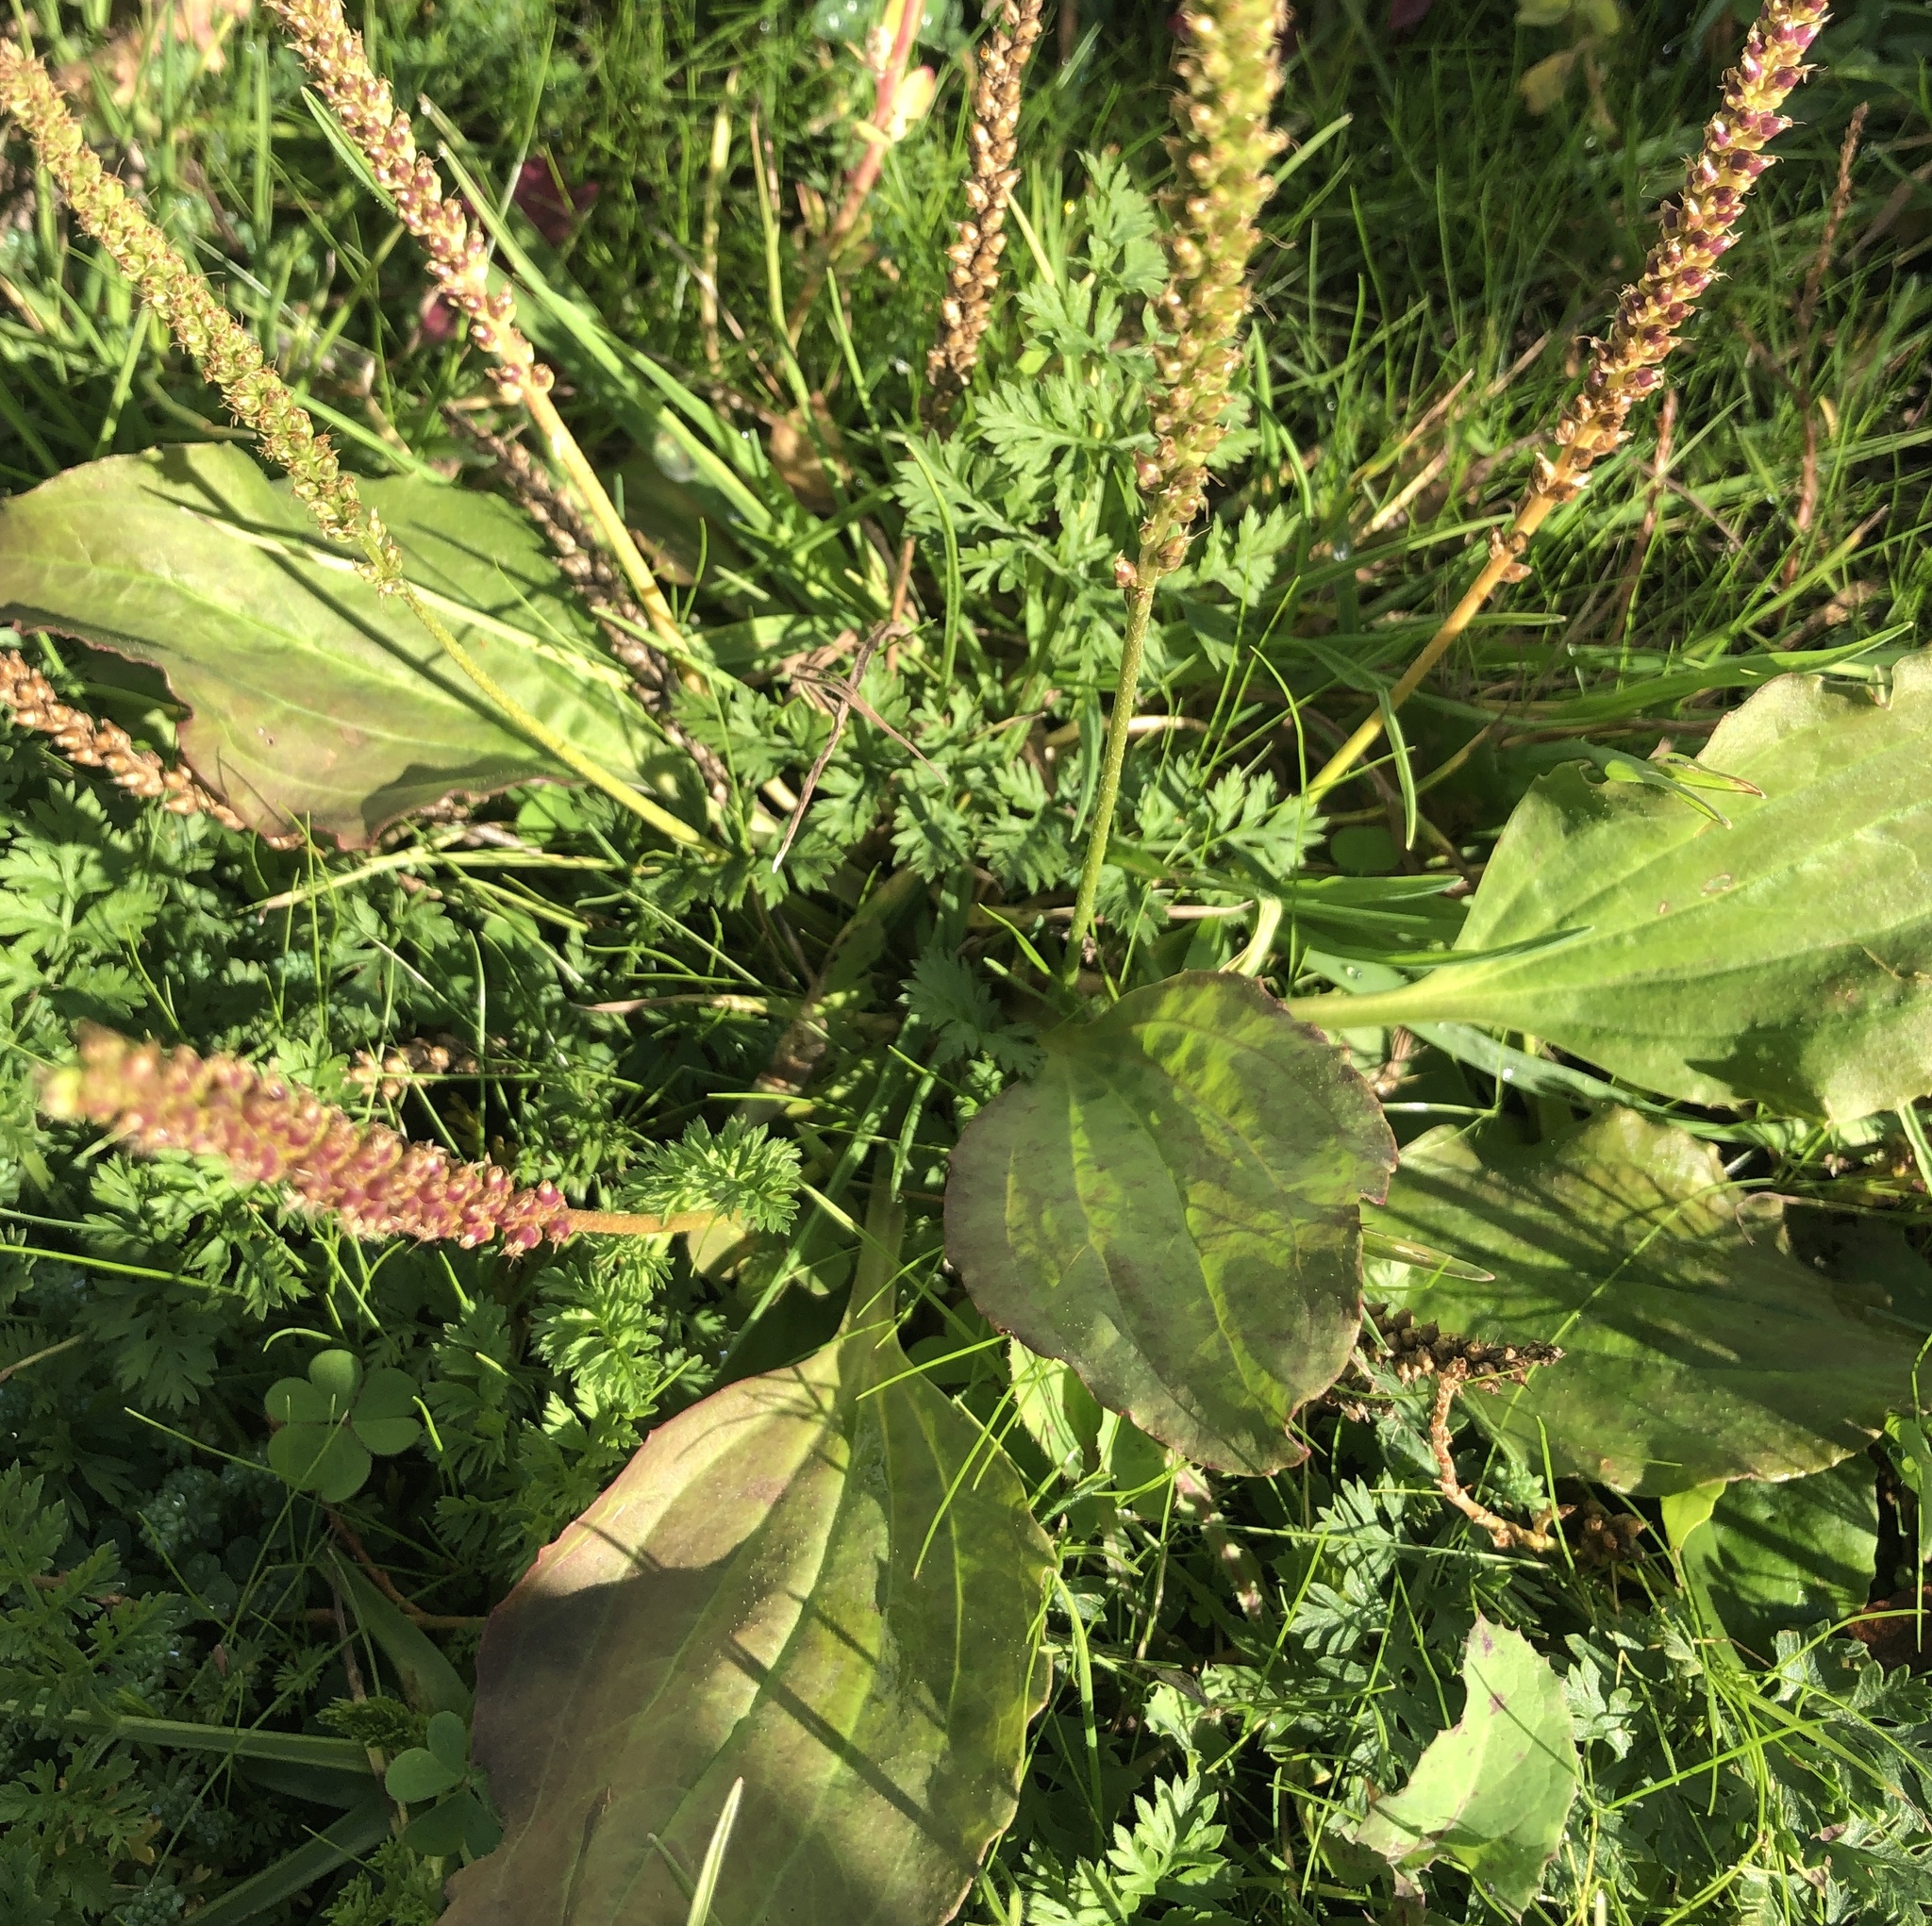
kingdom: Plantae
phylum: Tracheophyta
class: Magnoliopsida
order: Lamiales
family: Plantaginaceae
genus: Plantago
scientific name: Plantago major
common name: Common plantain
